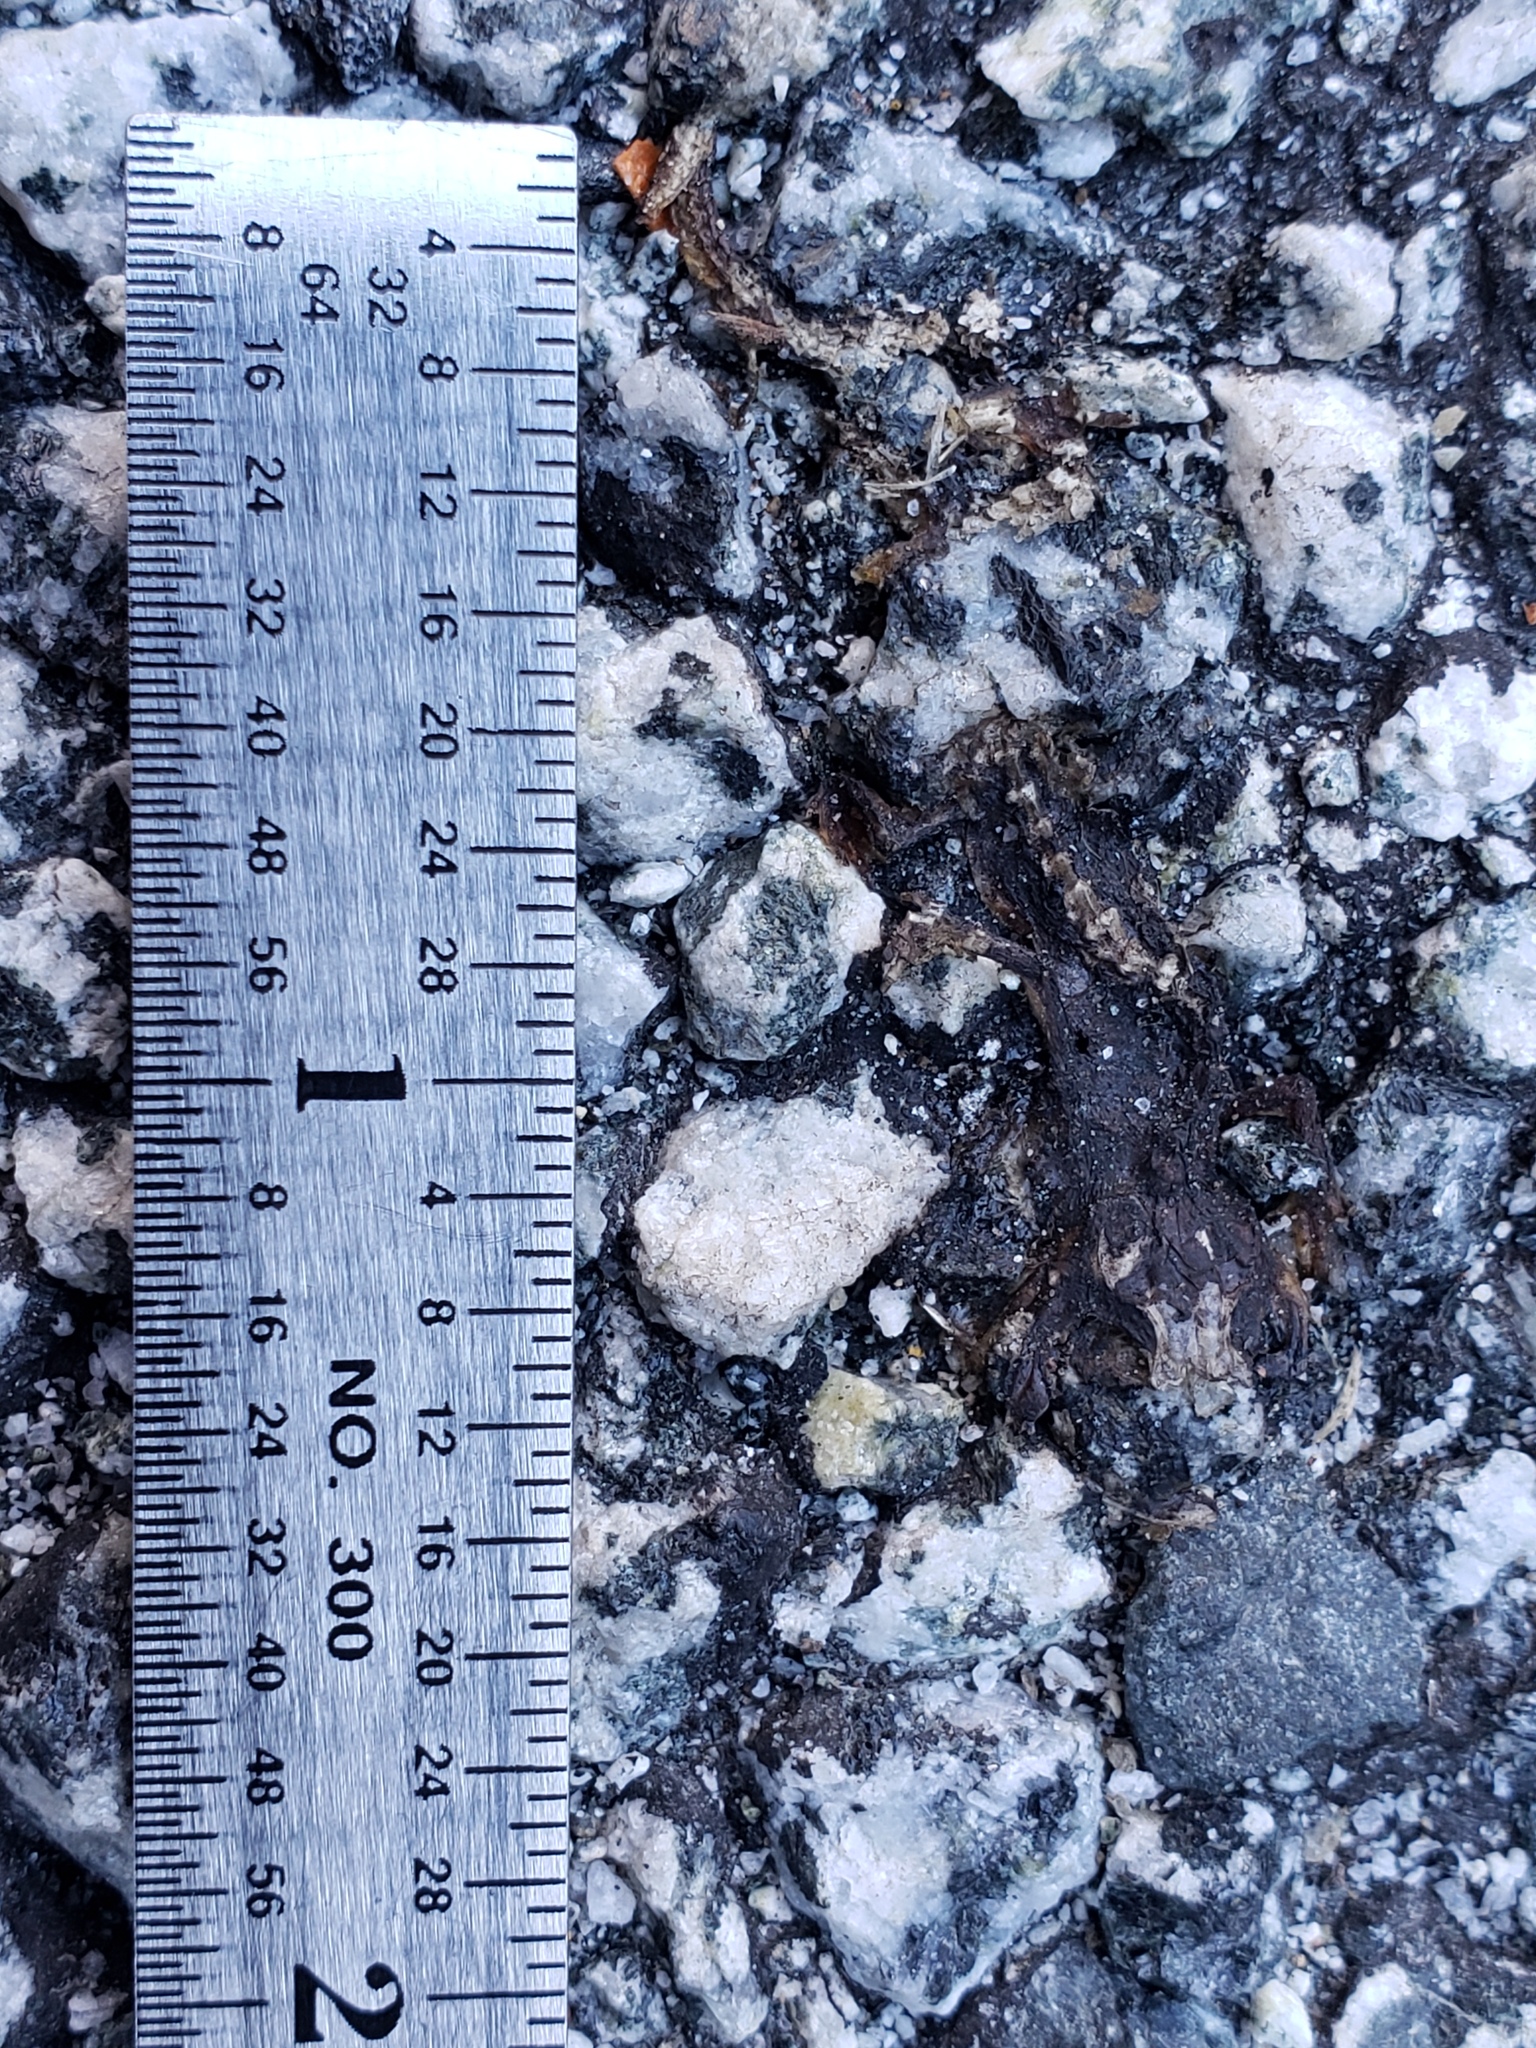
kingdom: Animalia
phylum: Chordata
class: Amphibia
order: Caudata
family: Salamandridae
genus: Taricha
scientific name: Taricha
